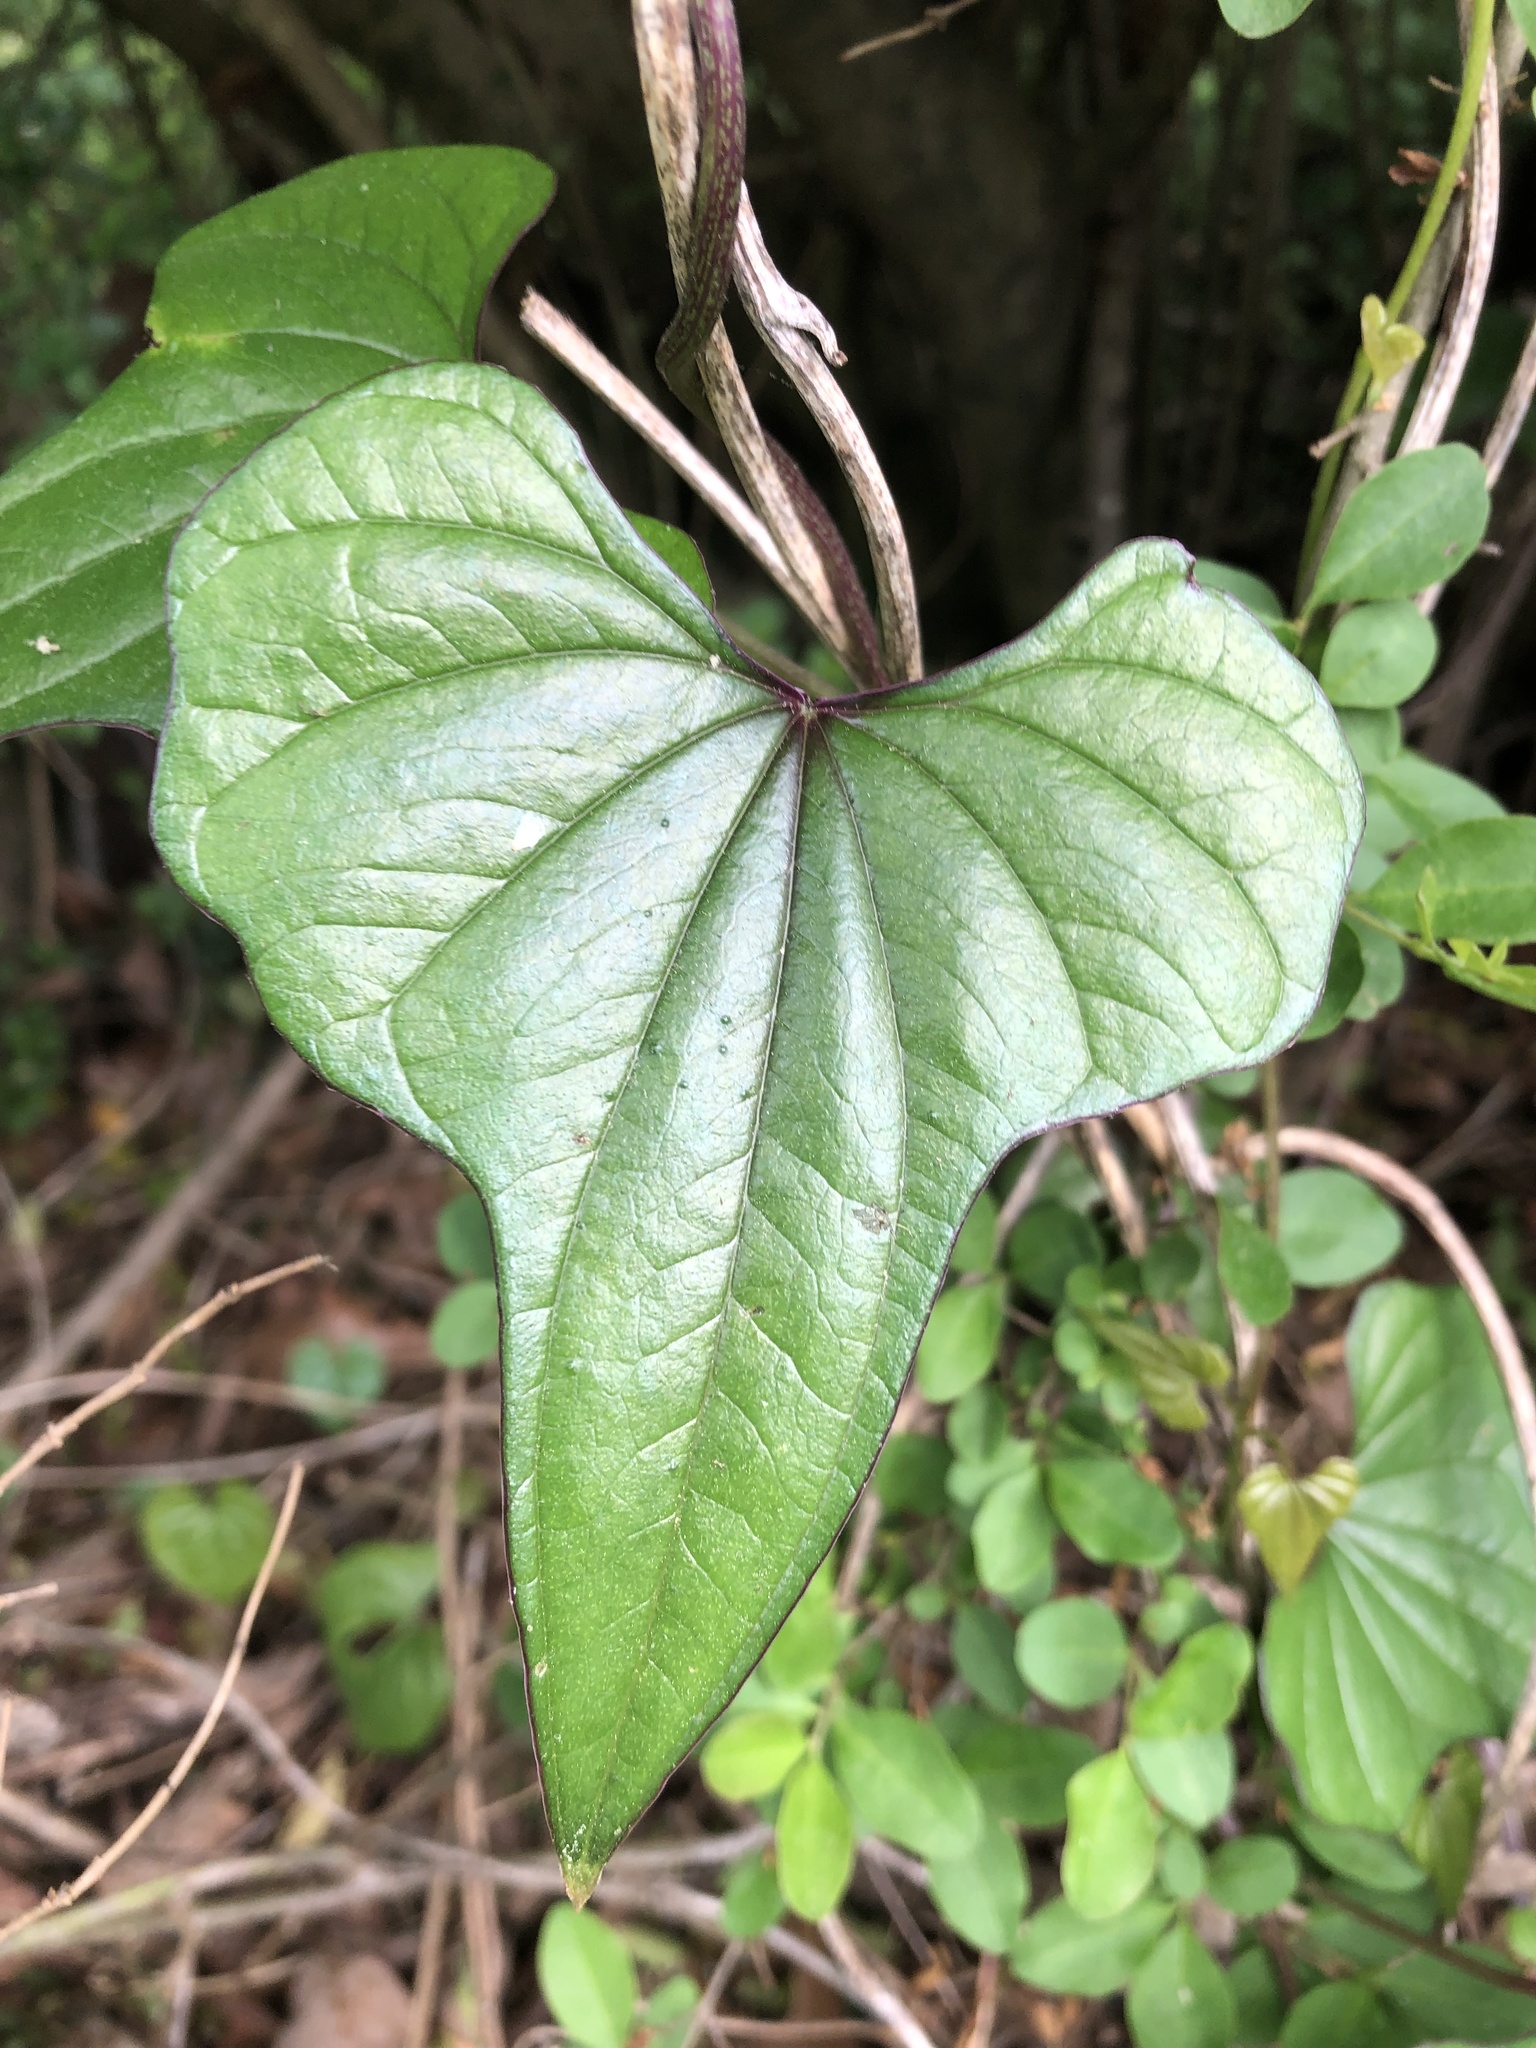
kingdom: Plantae
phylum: Tracheophyta
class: Liliopsida
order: Dioscoreales
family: Dioscoreaceae
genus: Dioscorea
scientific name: Dioscorea polystachya
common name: Chinese yam
